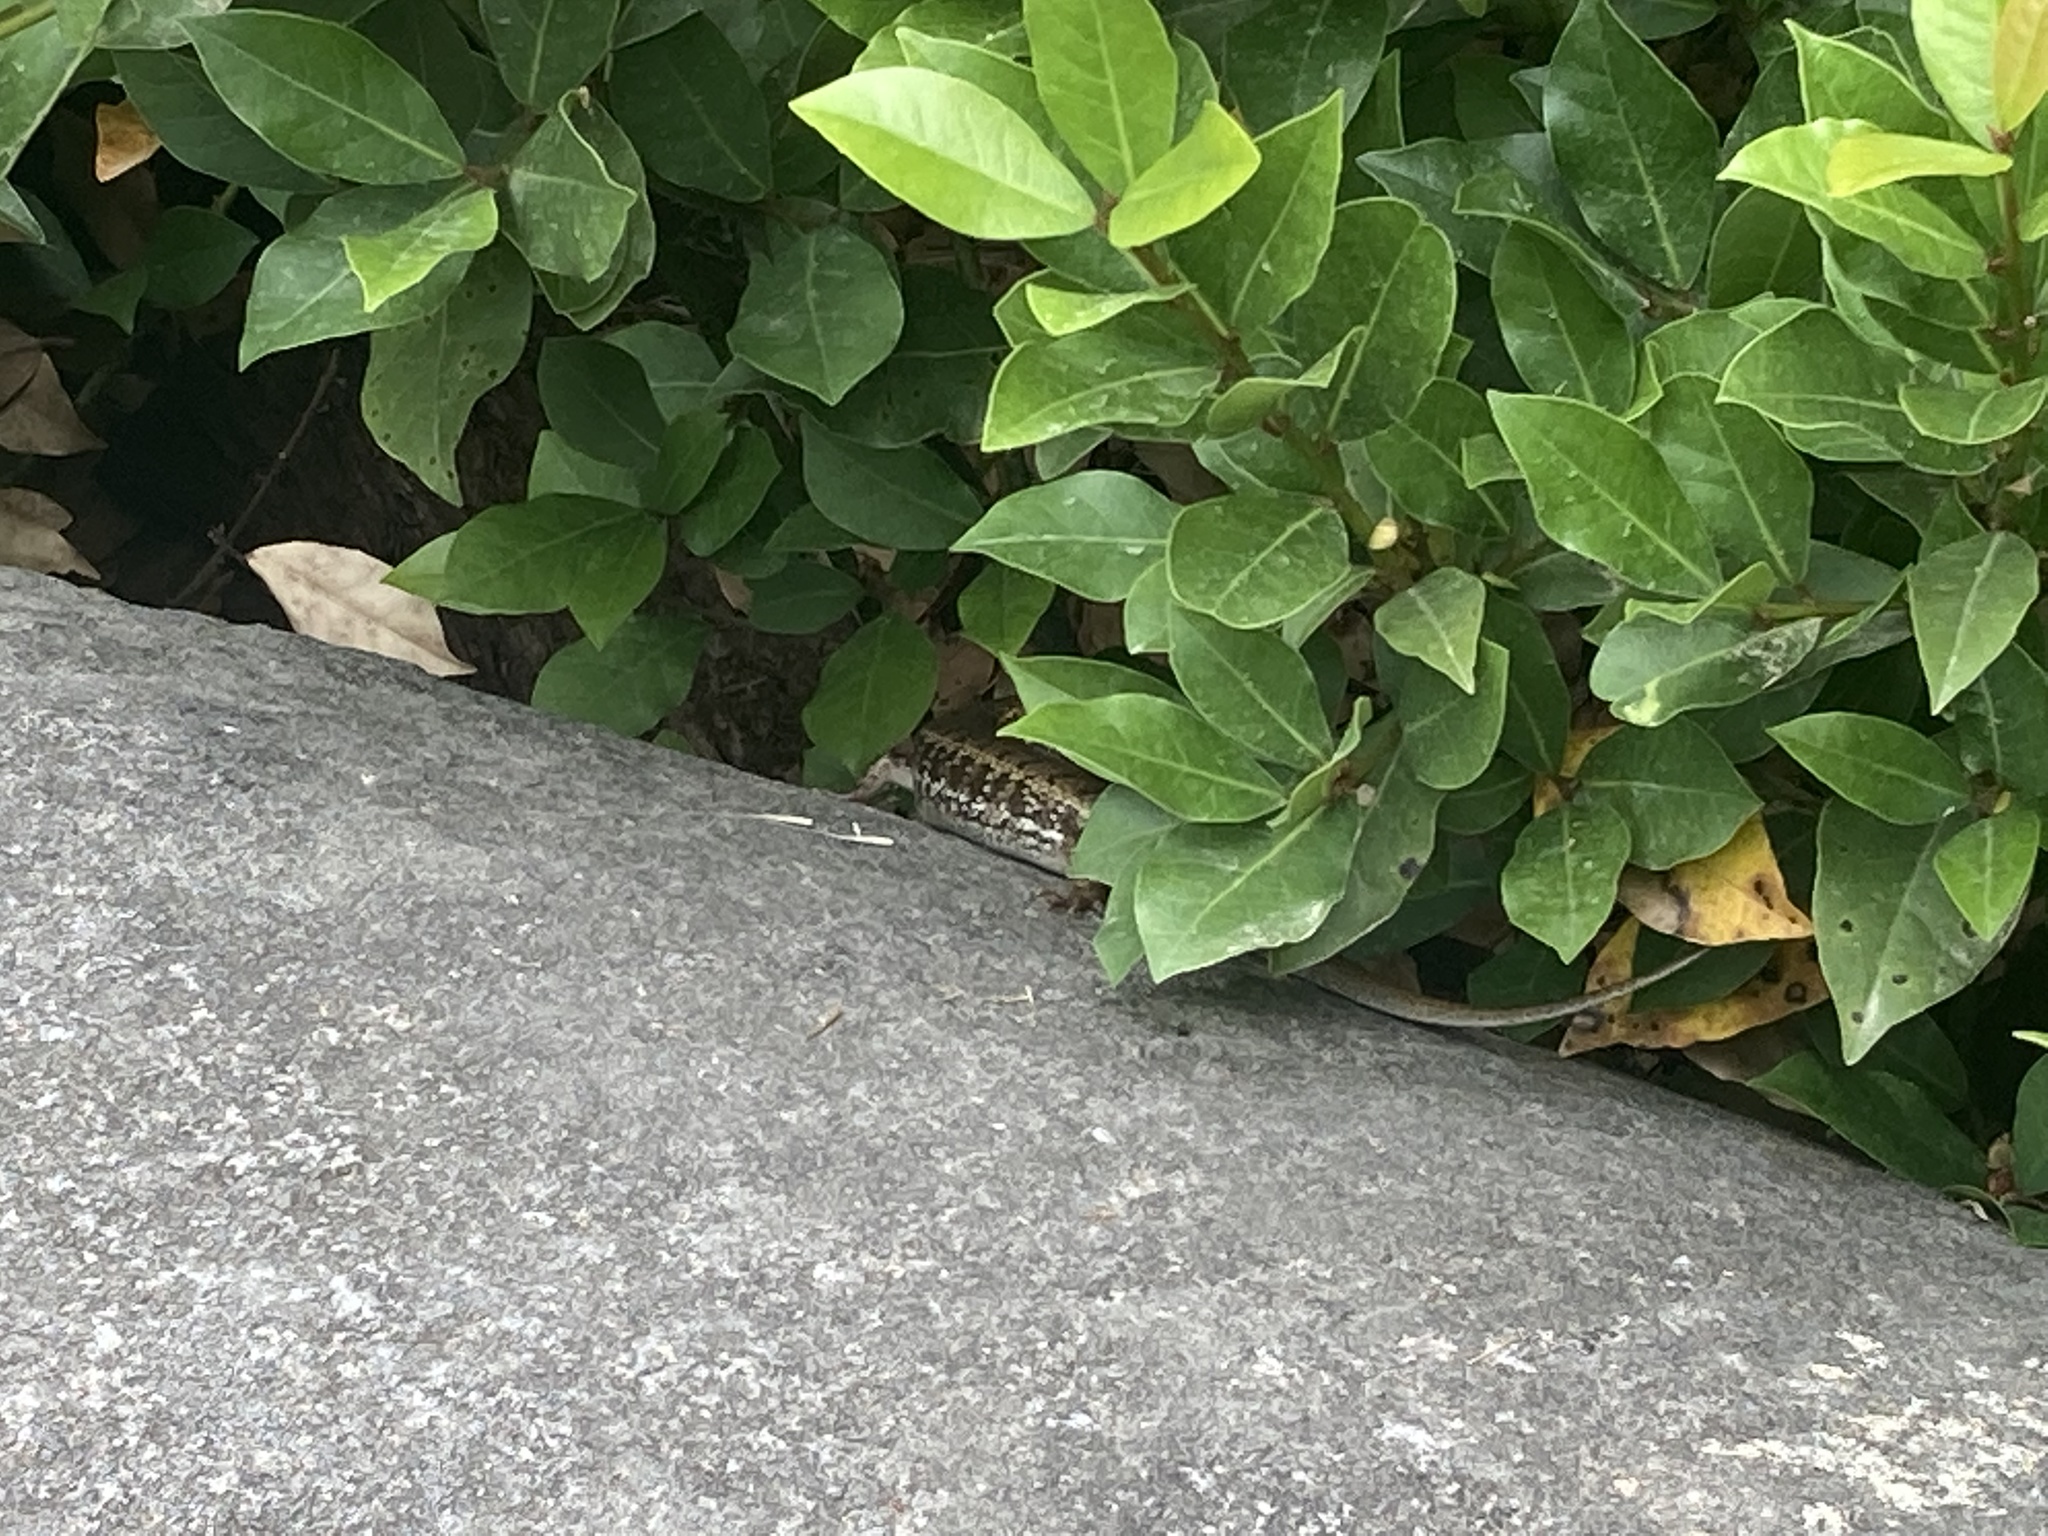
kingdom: Animalia
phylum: Chordata
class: Squamata
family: Scincidae
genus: Heremites
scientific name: Heremites auratus
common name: Golden grass mabuya
